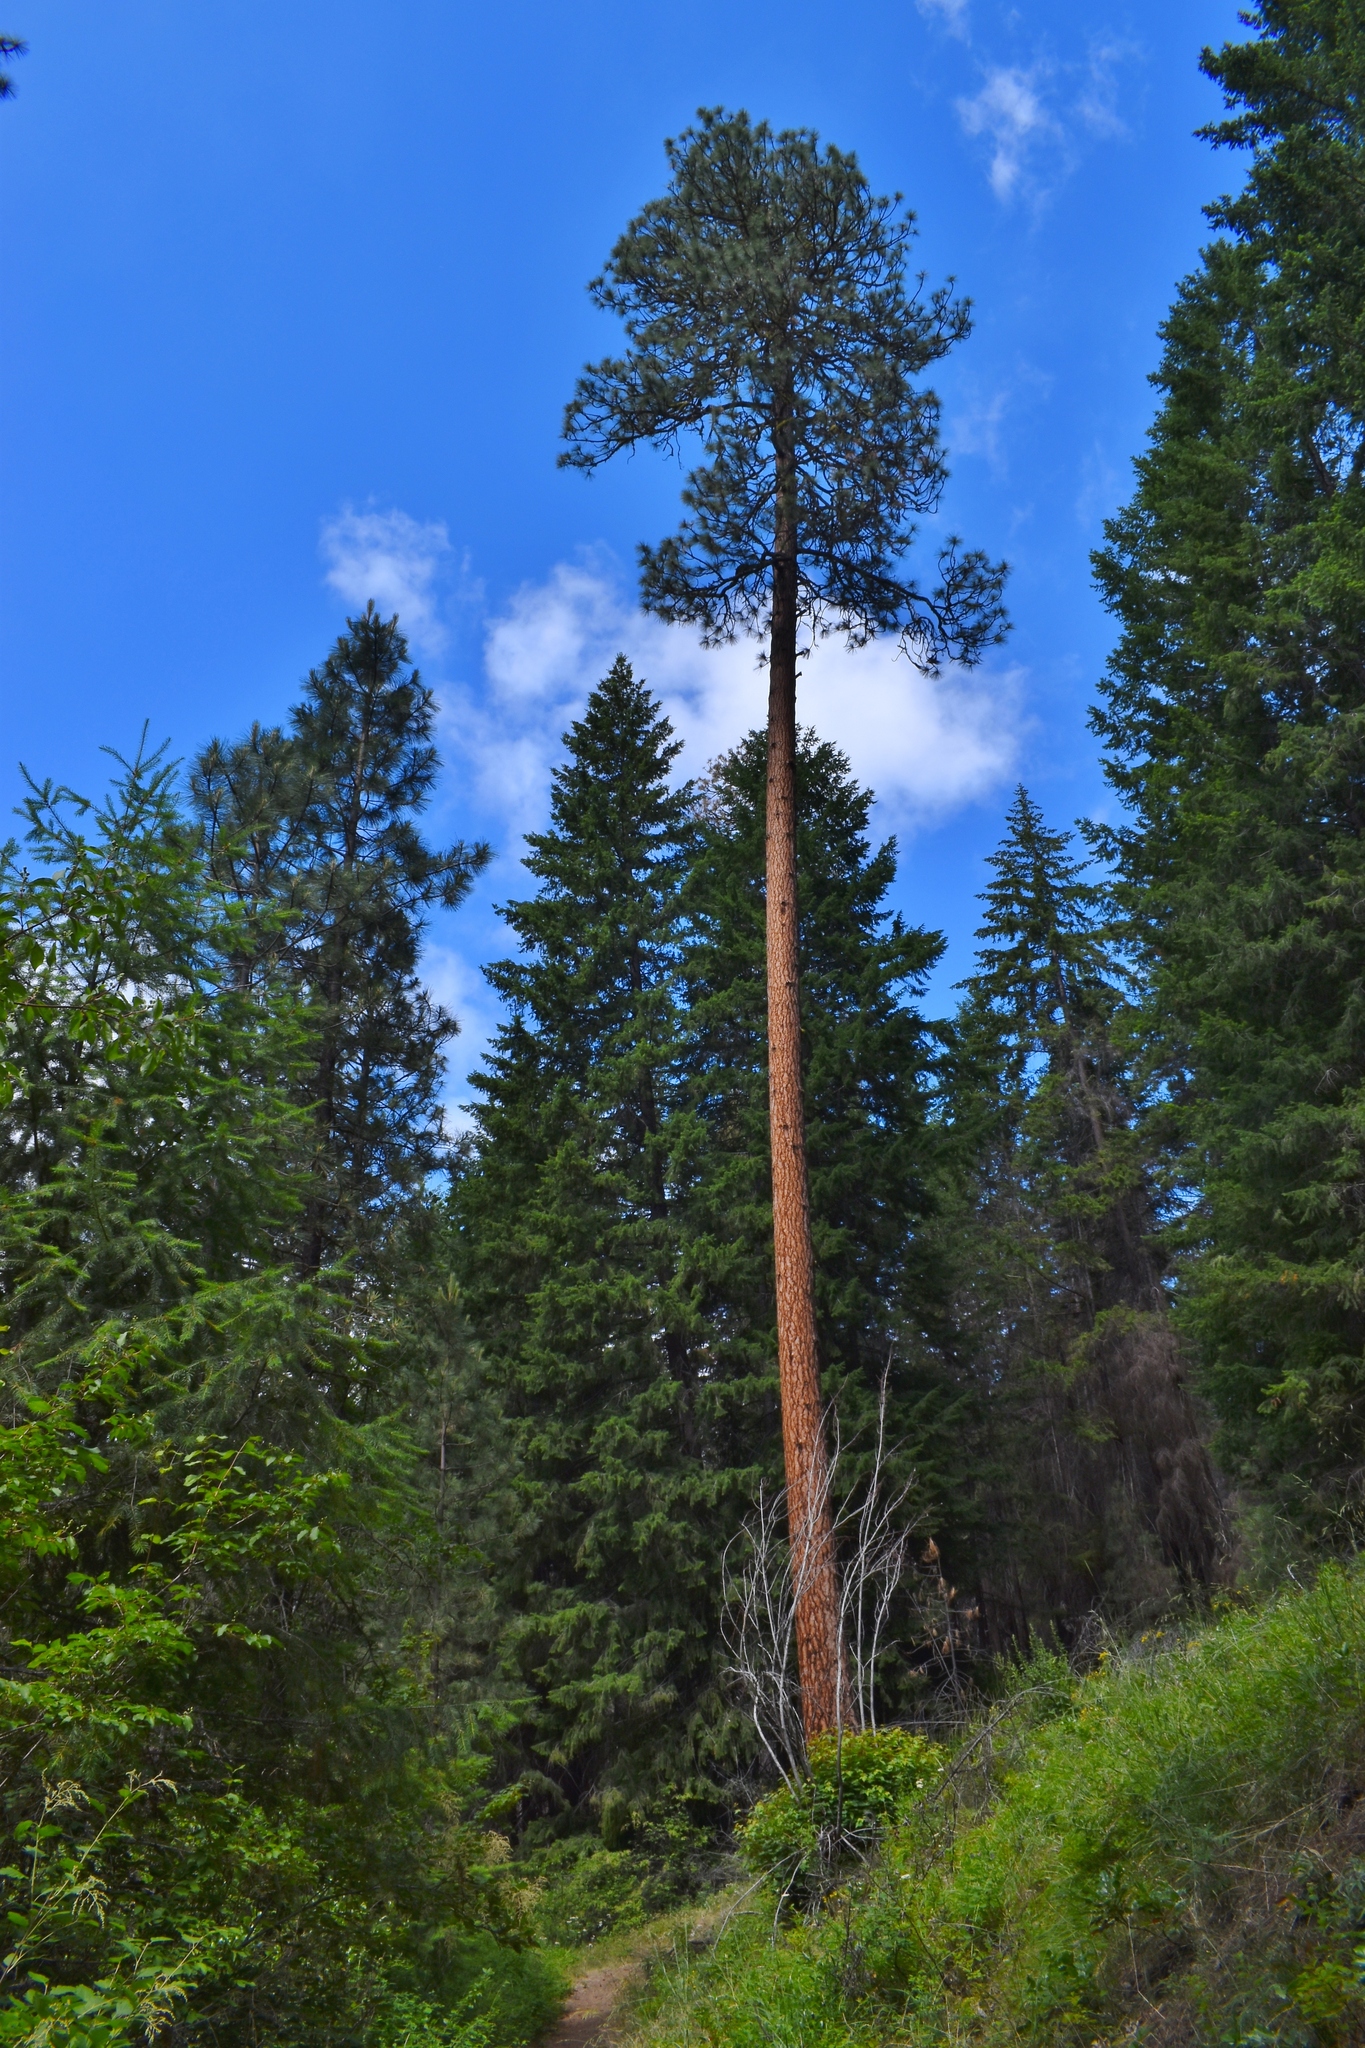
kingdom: Plantae
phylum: Tracheophyta
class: Pinopsida
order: Pinales
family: Pinaceae
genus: Pinus
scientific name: Pinus ponderosa
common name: Western yellow-pine
